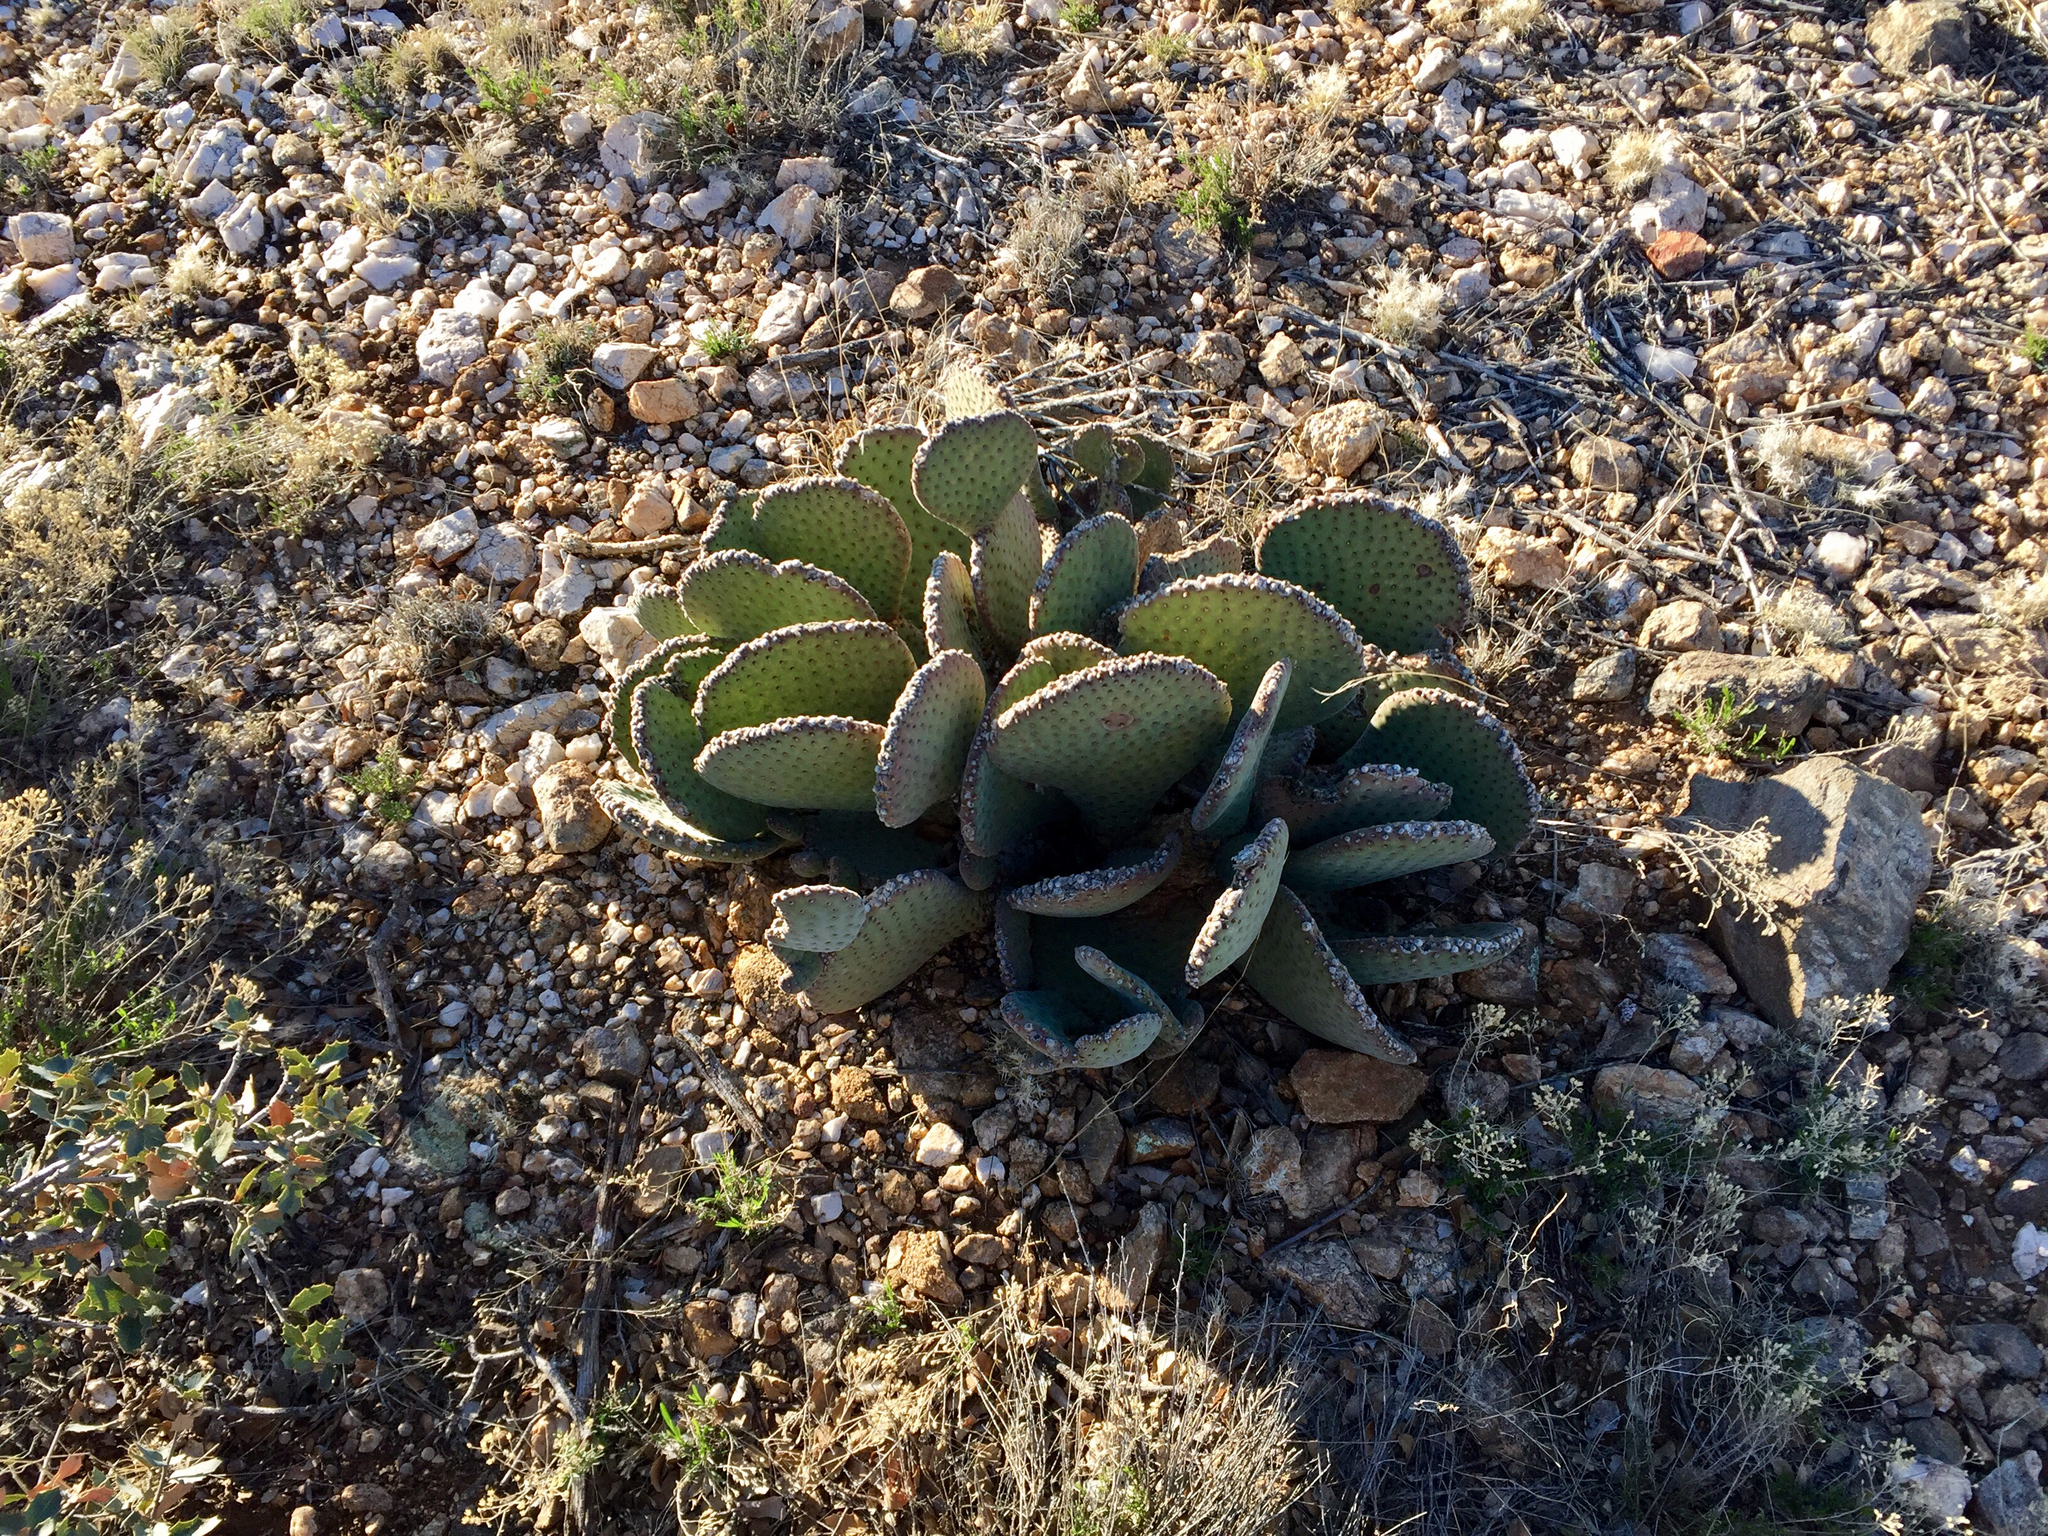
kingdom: Plantae
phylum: Tracheophyta
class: Magnoliopsida
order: Caryophyllales
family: Cactaceae
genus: Opuntia
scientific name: Opuntia basilaris
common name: Beavertail prickly-pear
